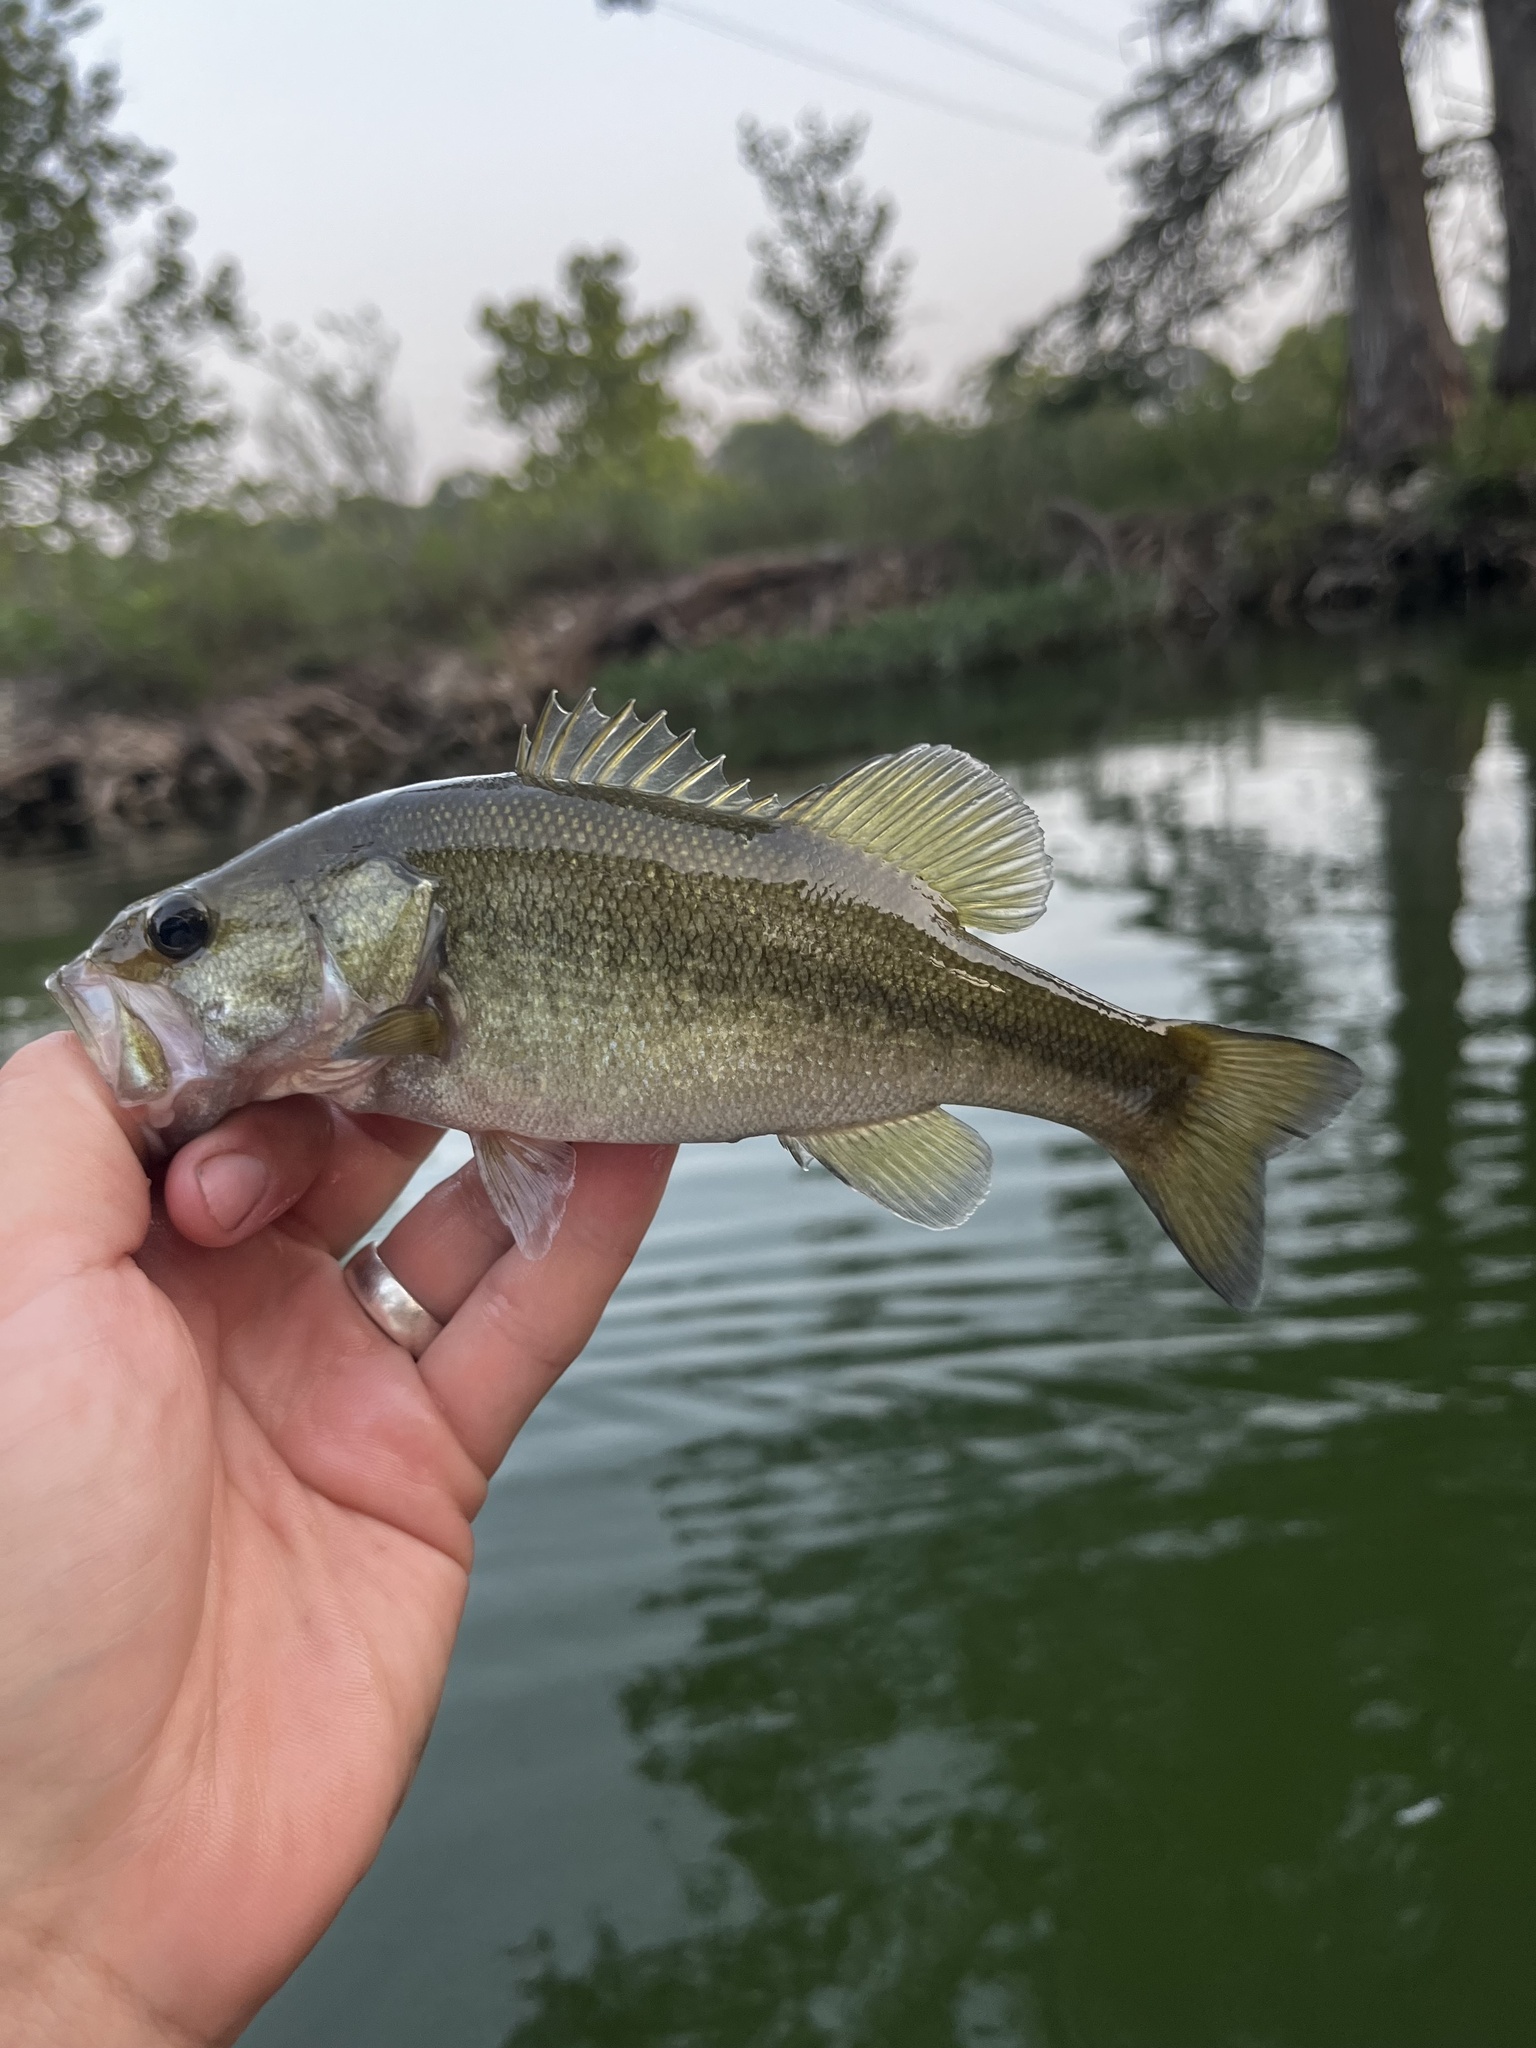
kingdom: Animalia
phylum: Chordata
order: Perciformes
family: Centrarchidae
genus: Micropterus
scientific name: Micropterus
